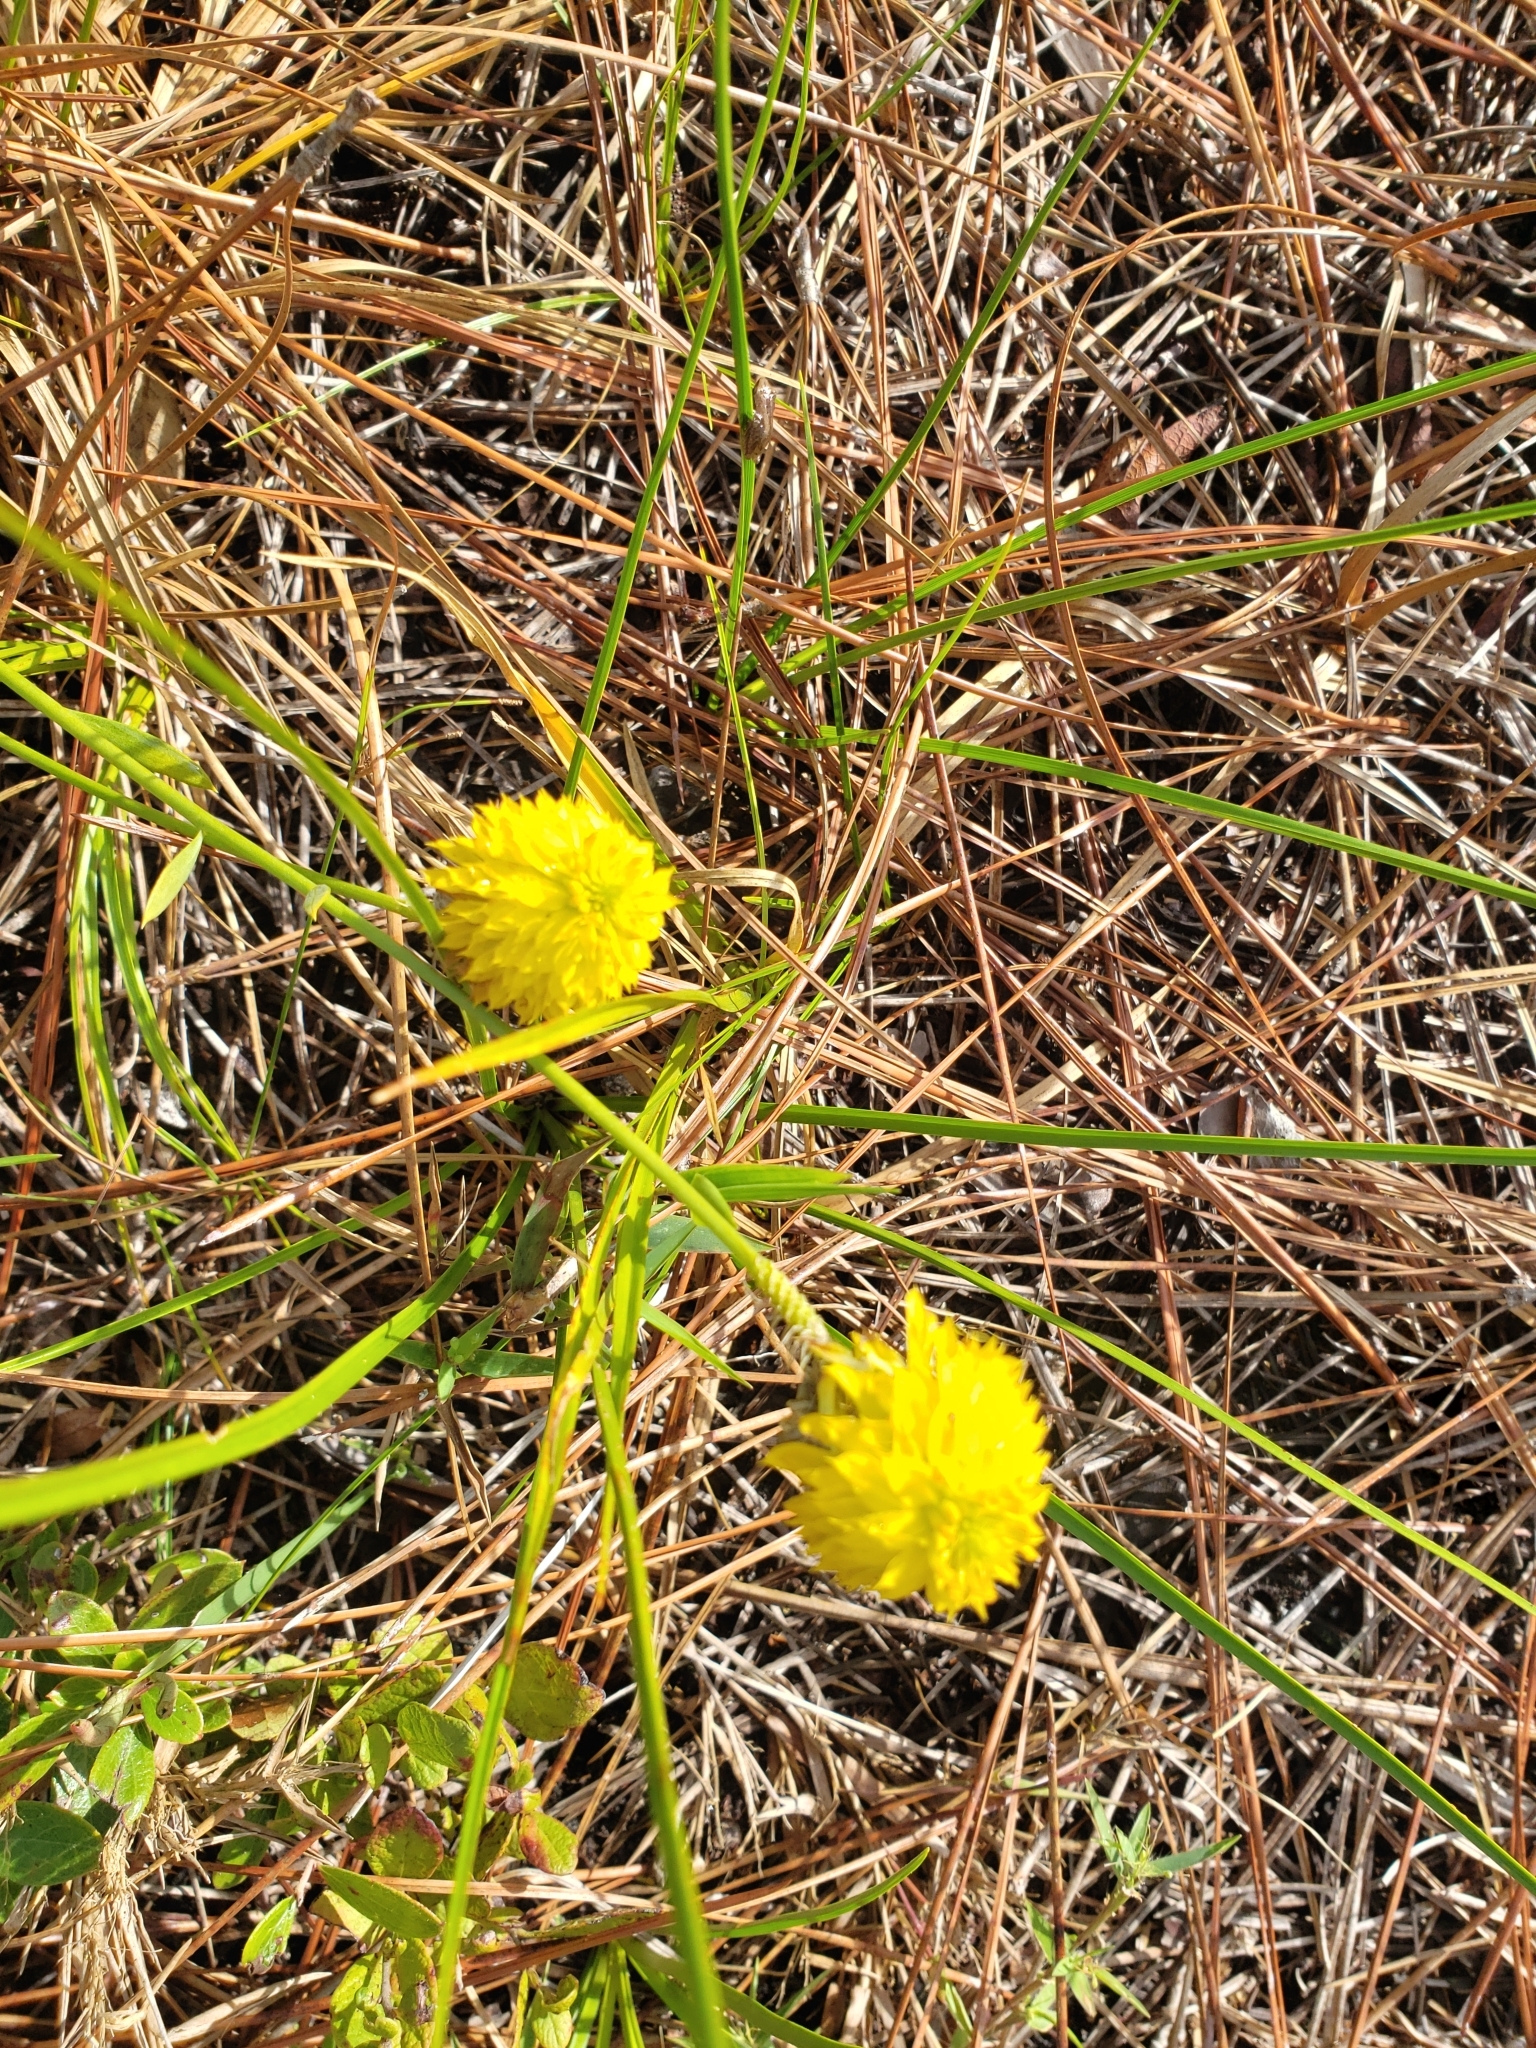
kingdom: Plantae
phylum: Tracheophyta
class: Magnoliopsida
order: Fabales
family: Polygalaceae
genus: Polygala
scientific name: Polygala rugelii
